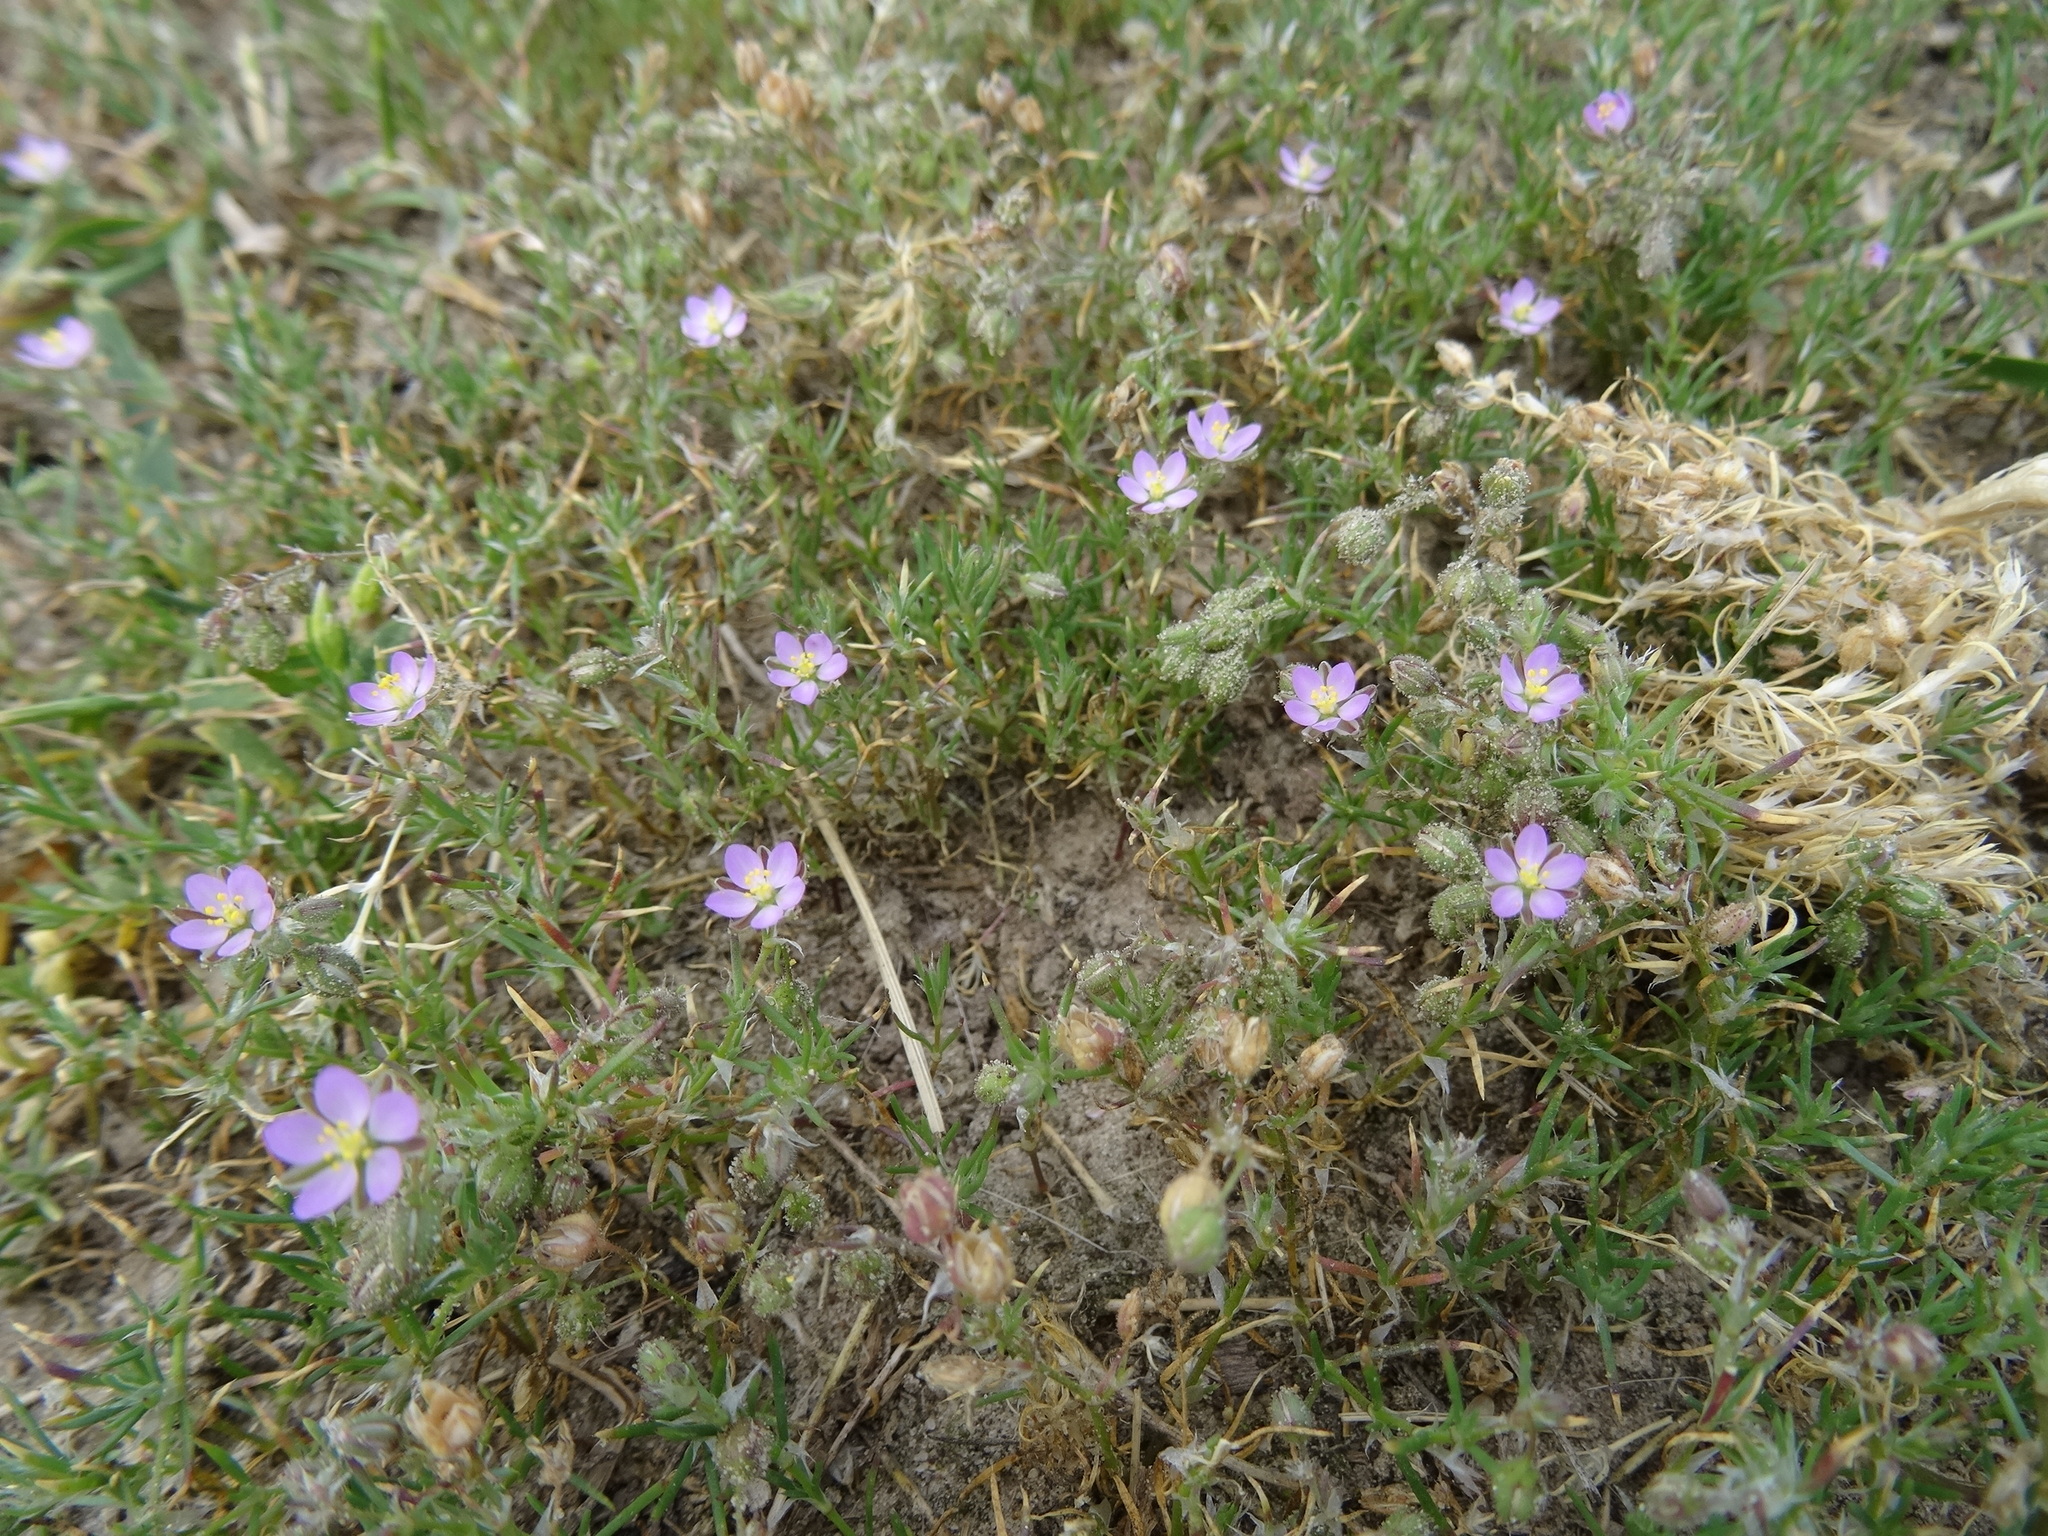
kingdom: Plantae
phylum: Tracheophyta
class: Magnoliopsida
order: Caryophyllales
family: Caryophyllaceae
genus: Spergularia
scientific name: Spergularia rubra
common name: Red sand-spurrey
